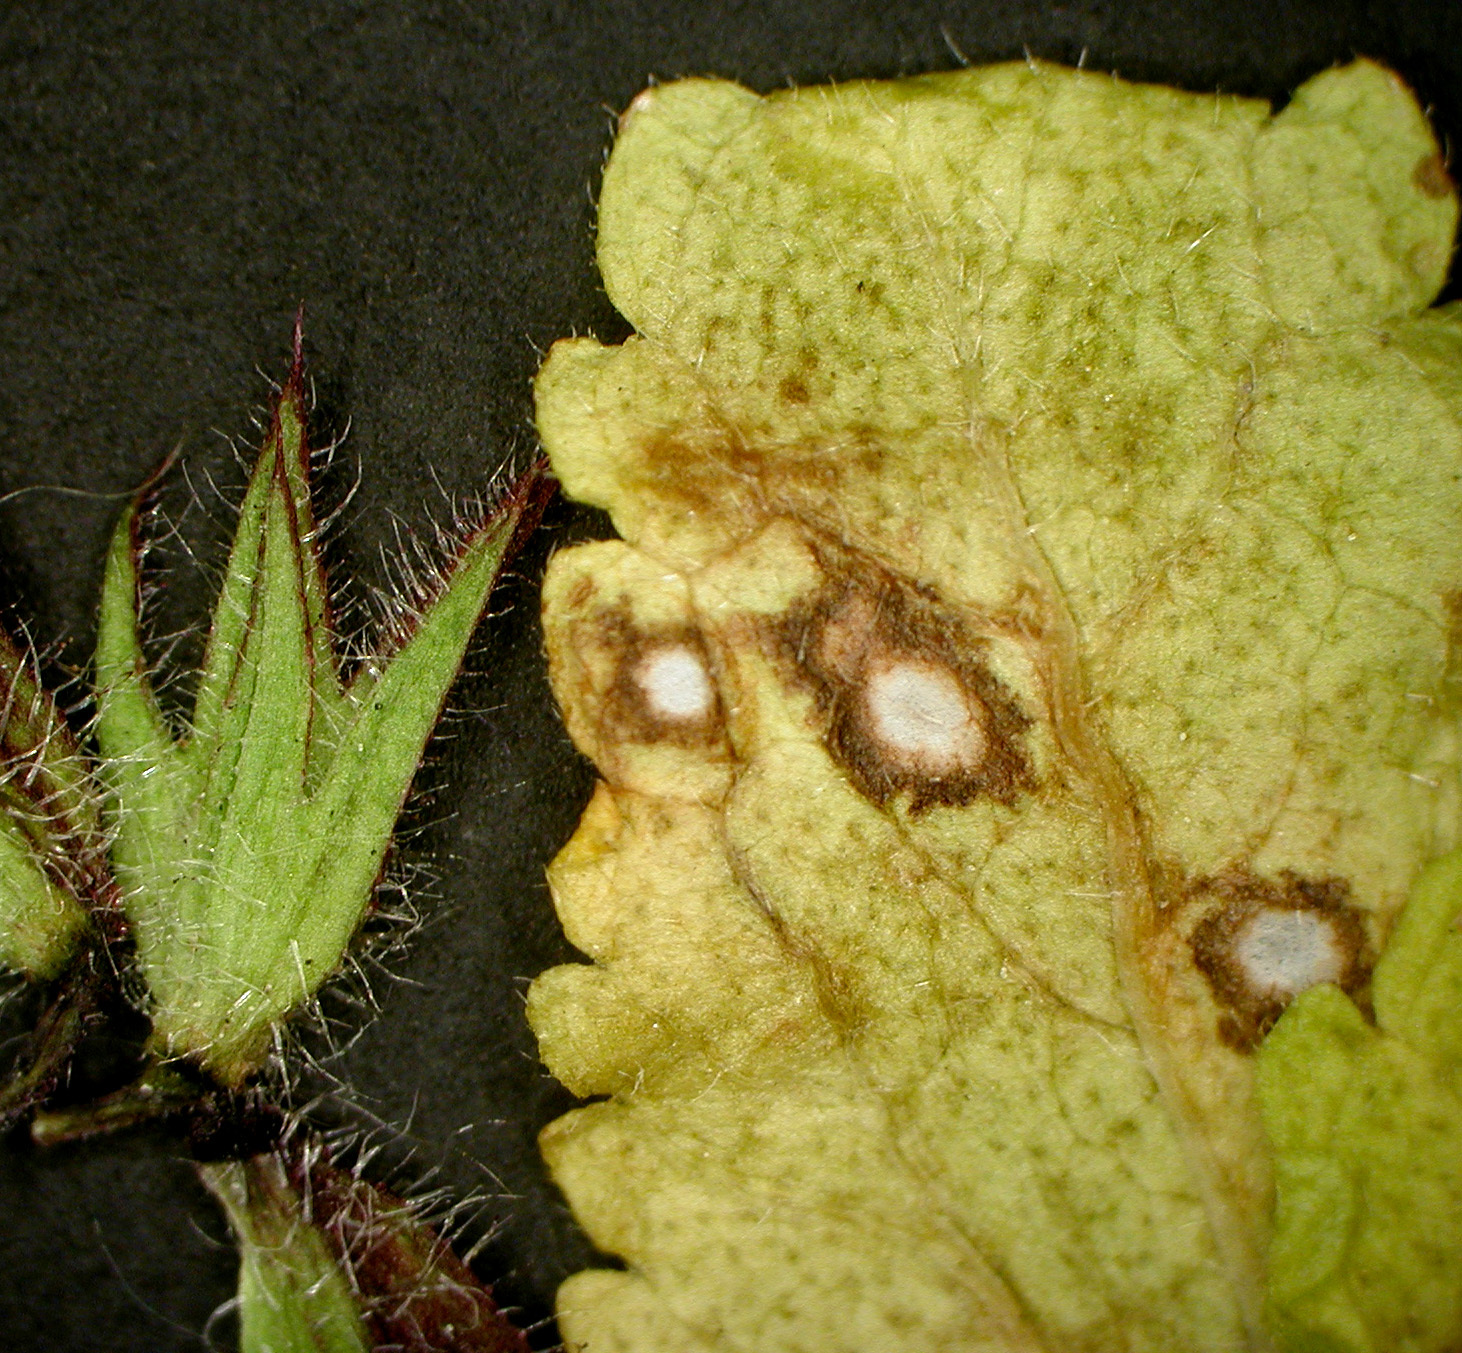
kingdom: Fungi
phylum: Ascomycota
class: Dothideomycetes
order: Mycosphaerellales
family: Mycosphaerellaceae
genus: Ramularia
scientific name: Ramularia lamii
